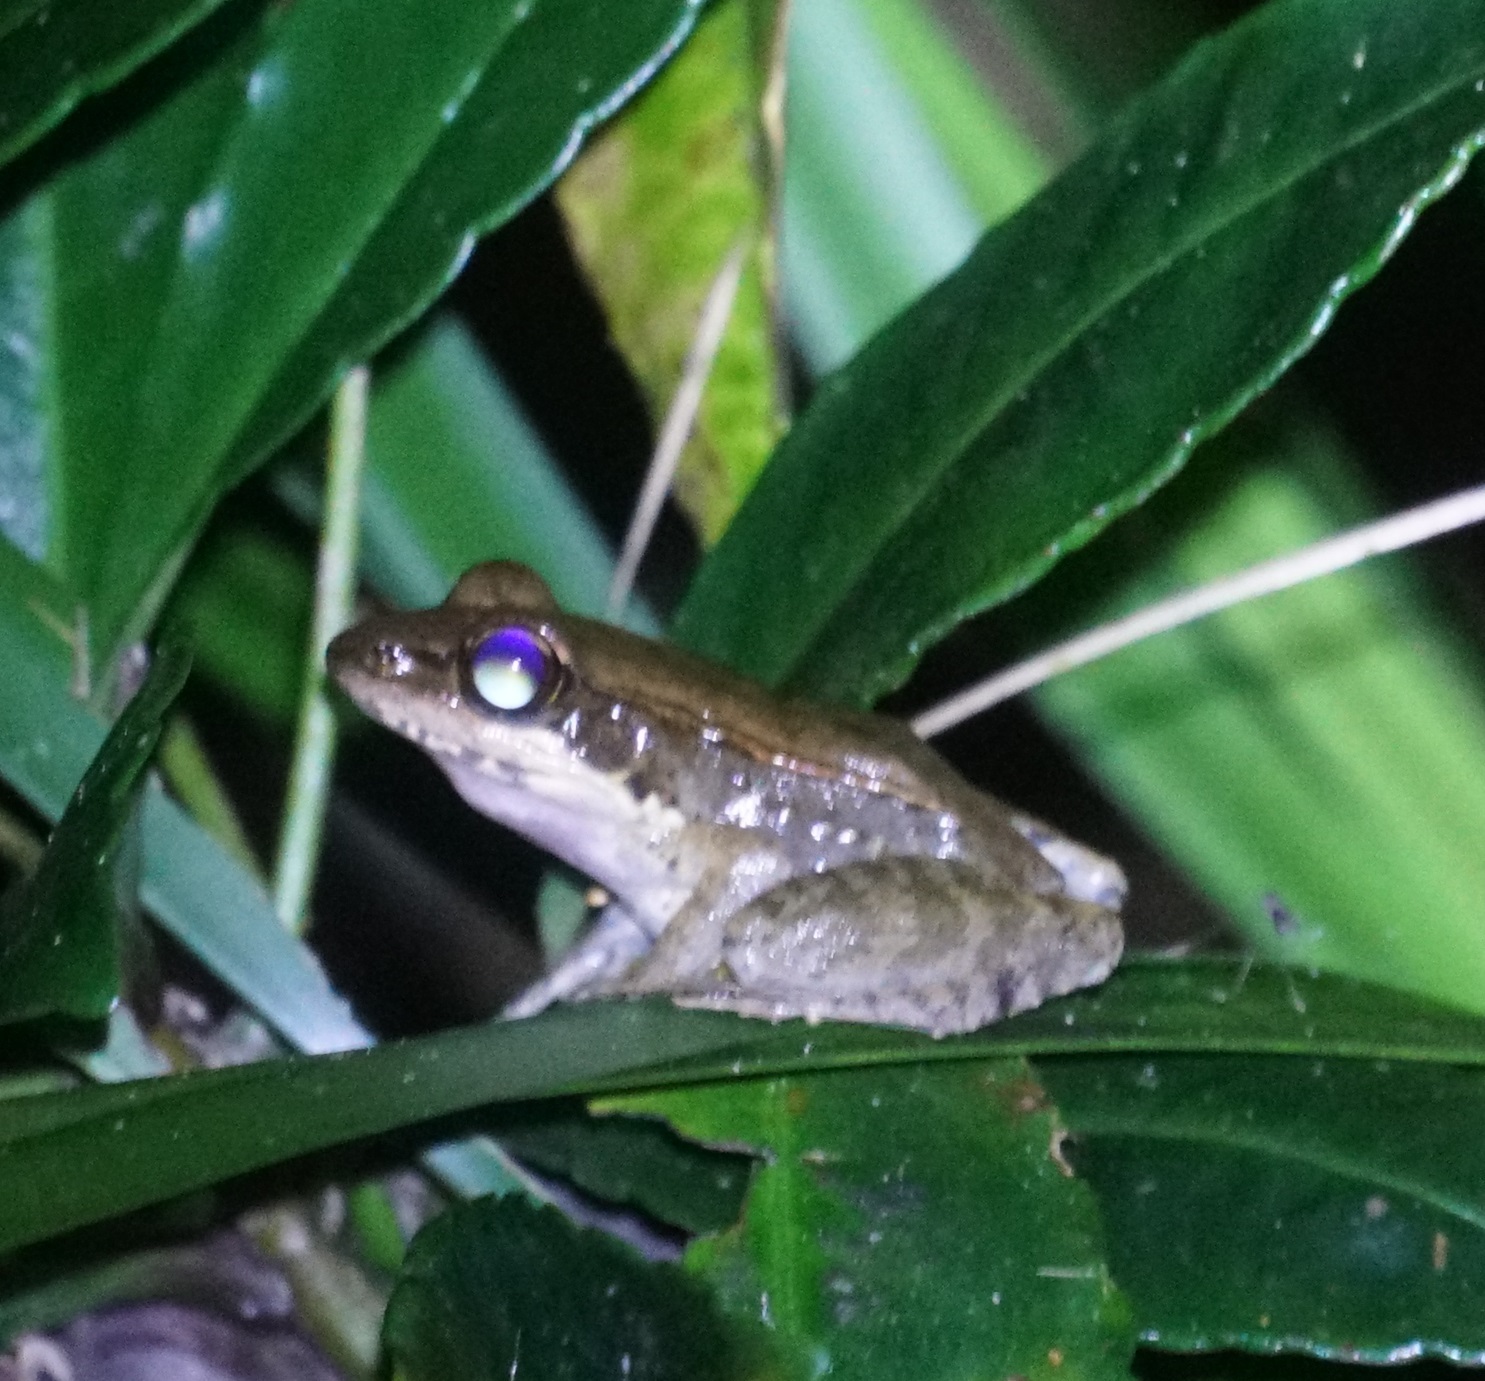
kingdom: Animalia
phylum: Chordata
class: Amphibia
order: Anura
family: Ranidae
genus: Papurana
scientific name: Papurana daemeli
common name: Arhem rana
